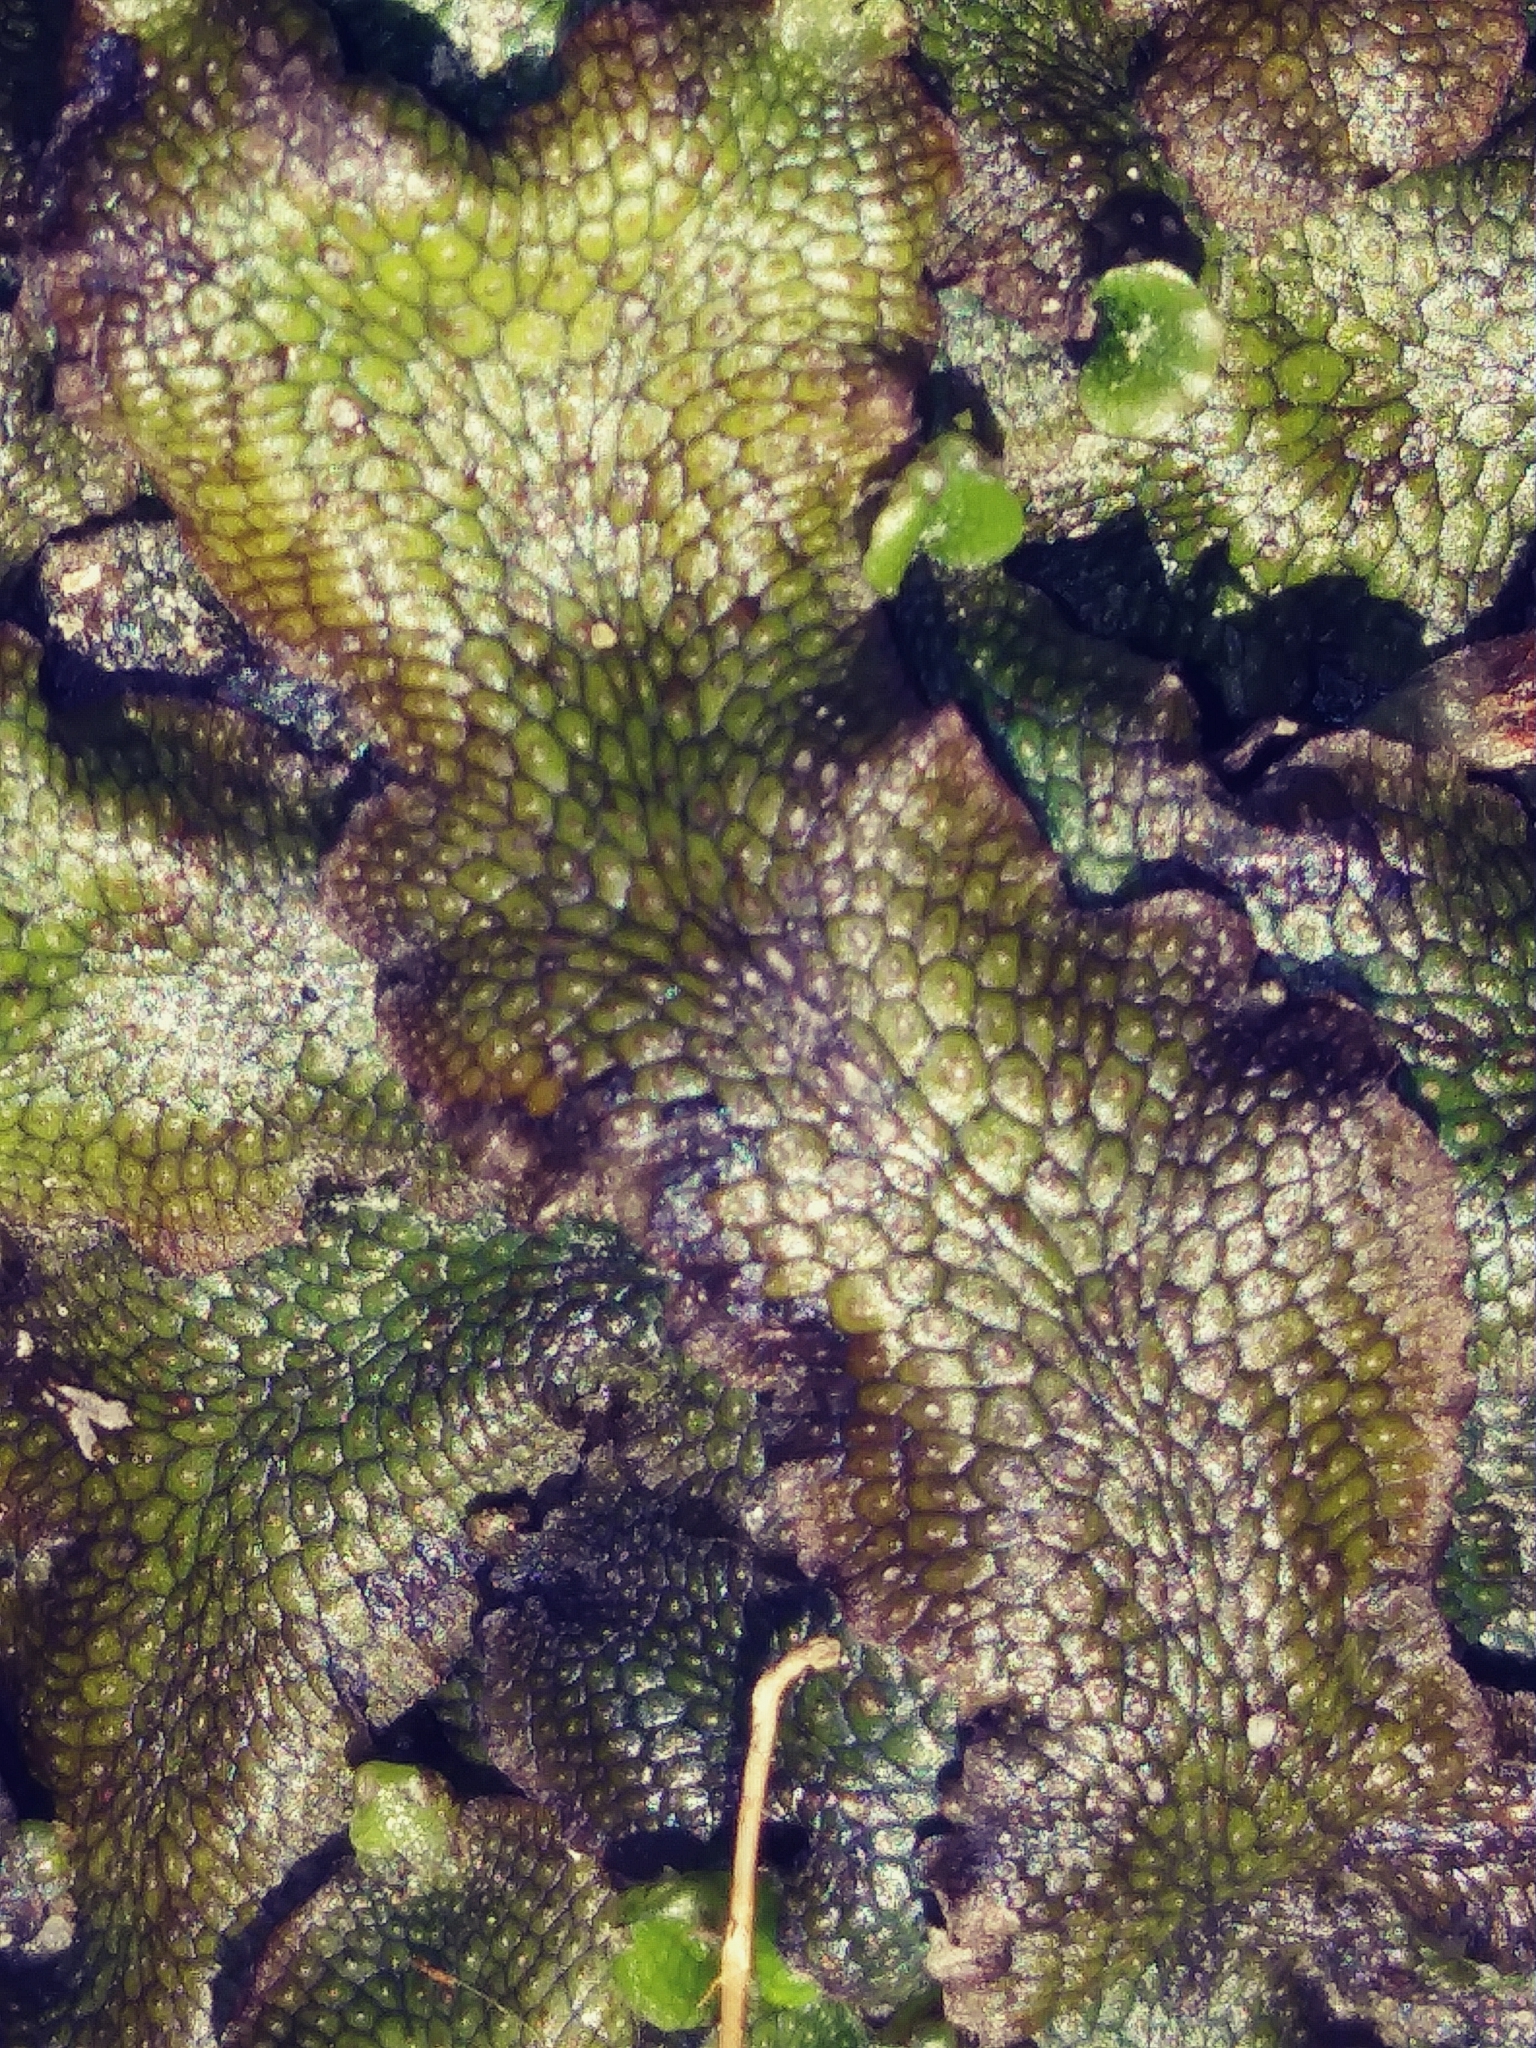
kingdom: Plantae
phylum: Marchantiophyta
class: Marchantiopsida
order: Marchantiales
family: Conocephalaceae
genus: Conocephalum
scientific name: Conocephalum salebrosum
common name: Cat-tongue liverwort
